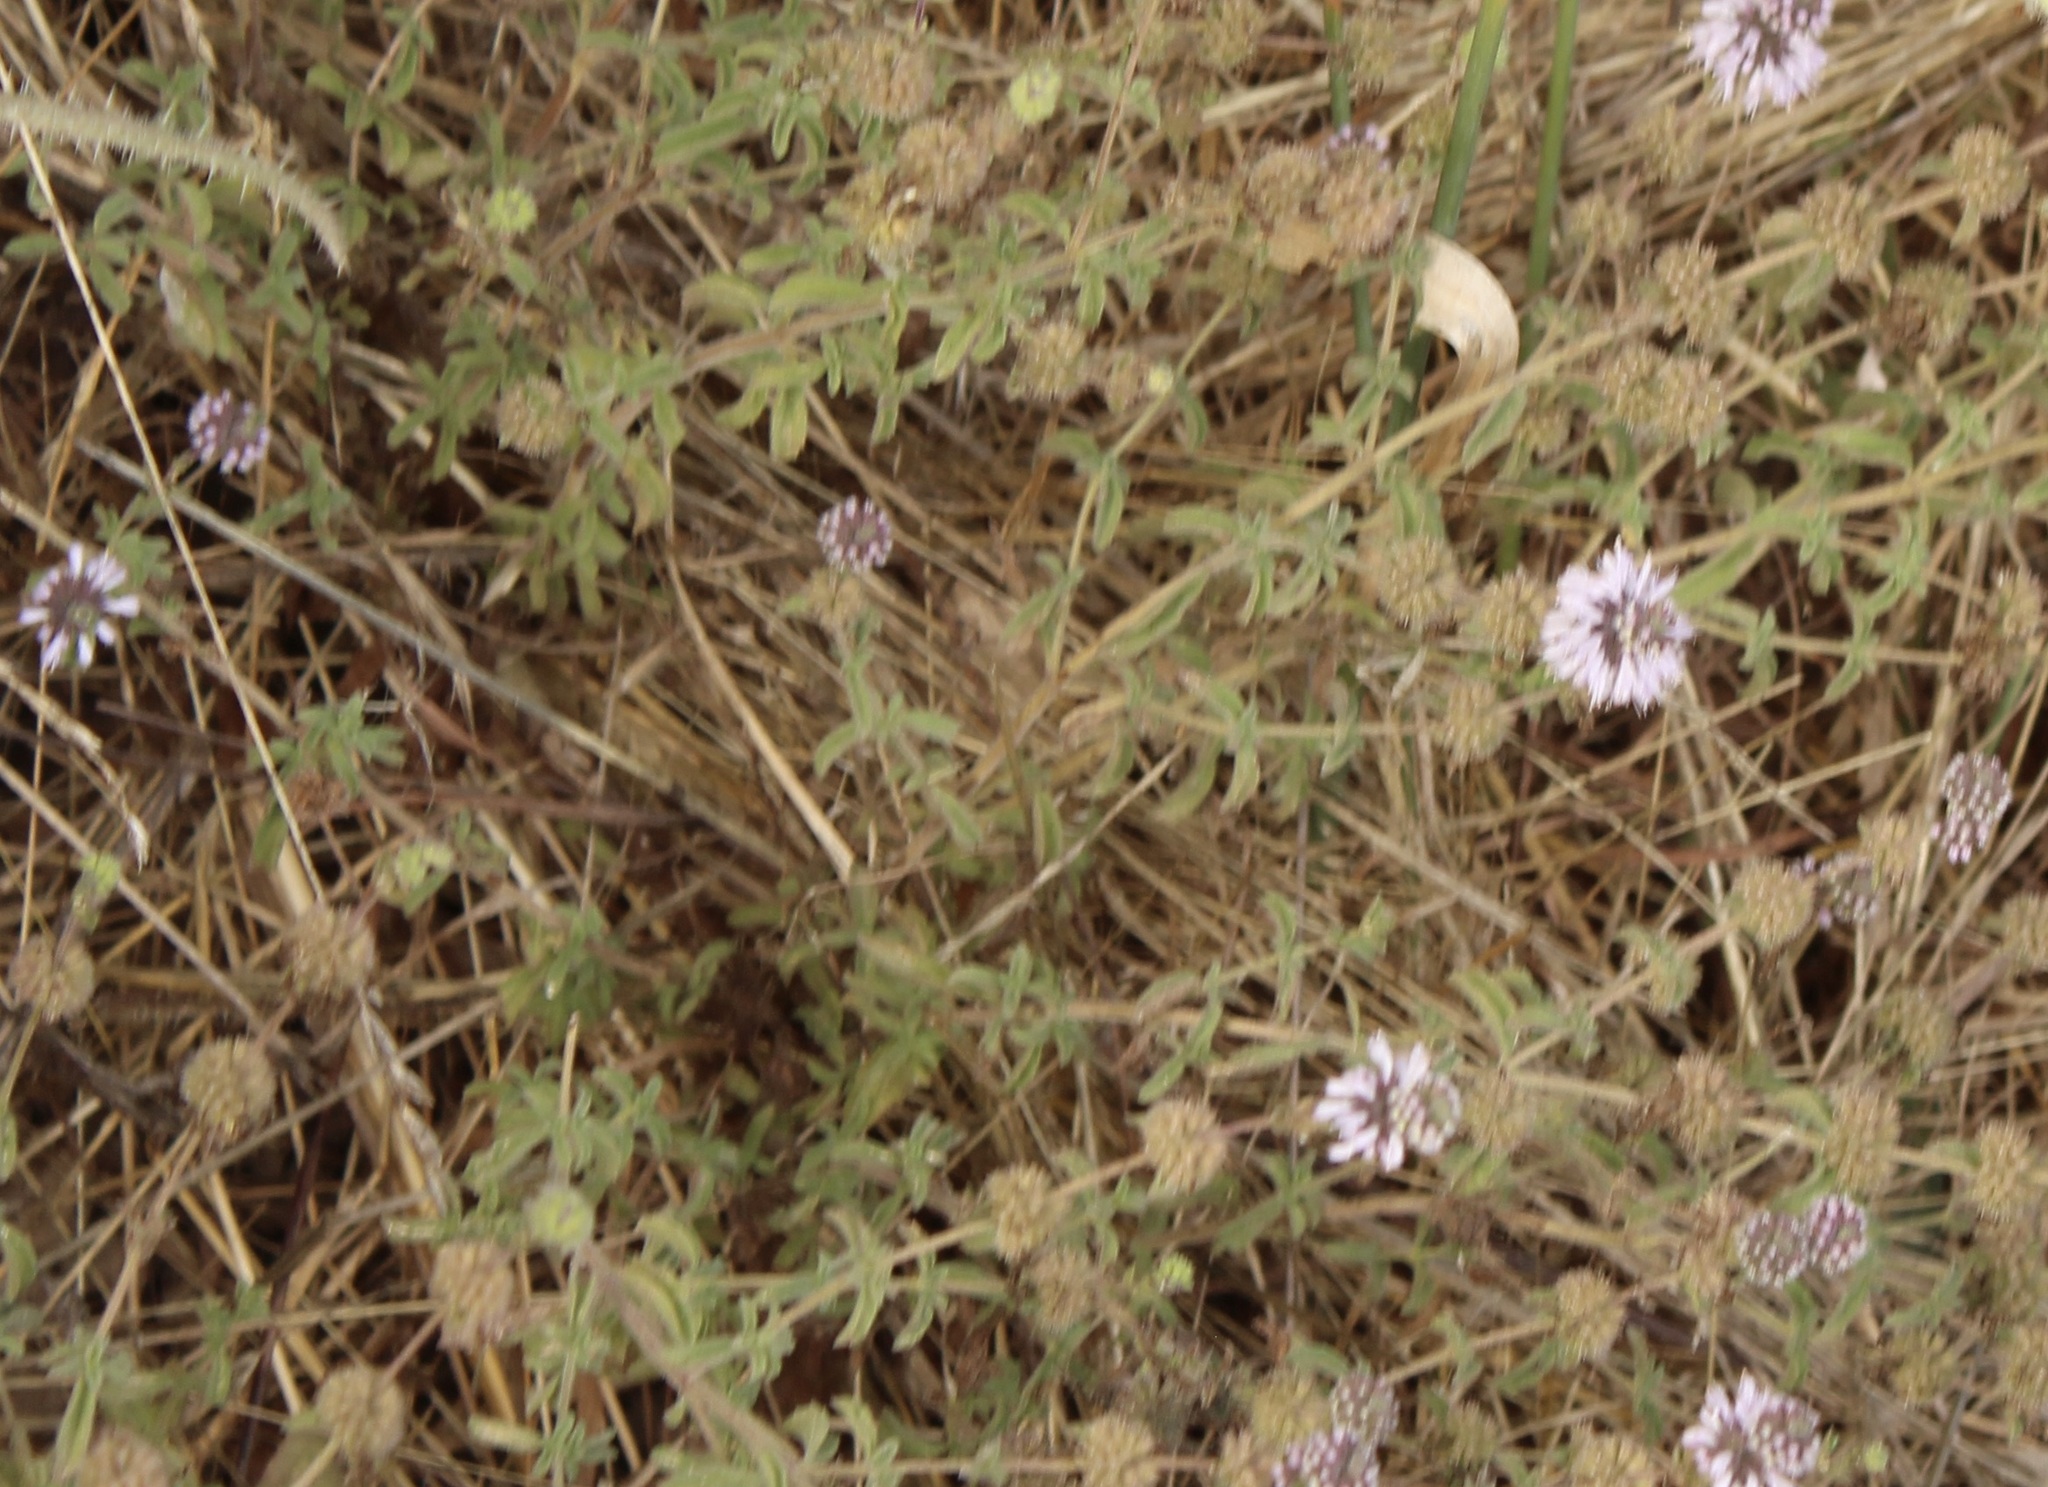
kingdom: Plantae
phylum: Tracheophyta
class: Magnoliopsida
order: Lamiales
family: Lamiaceae
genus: Mentha
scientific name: Mentha pulegium
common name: Pennyroyal
